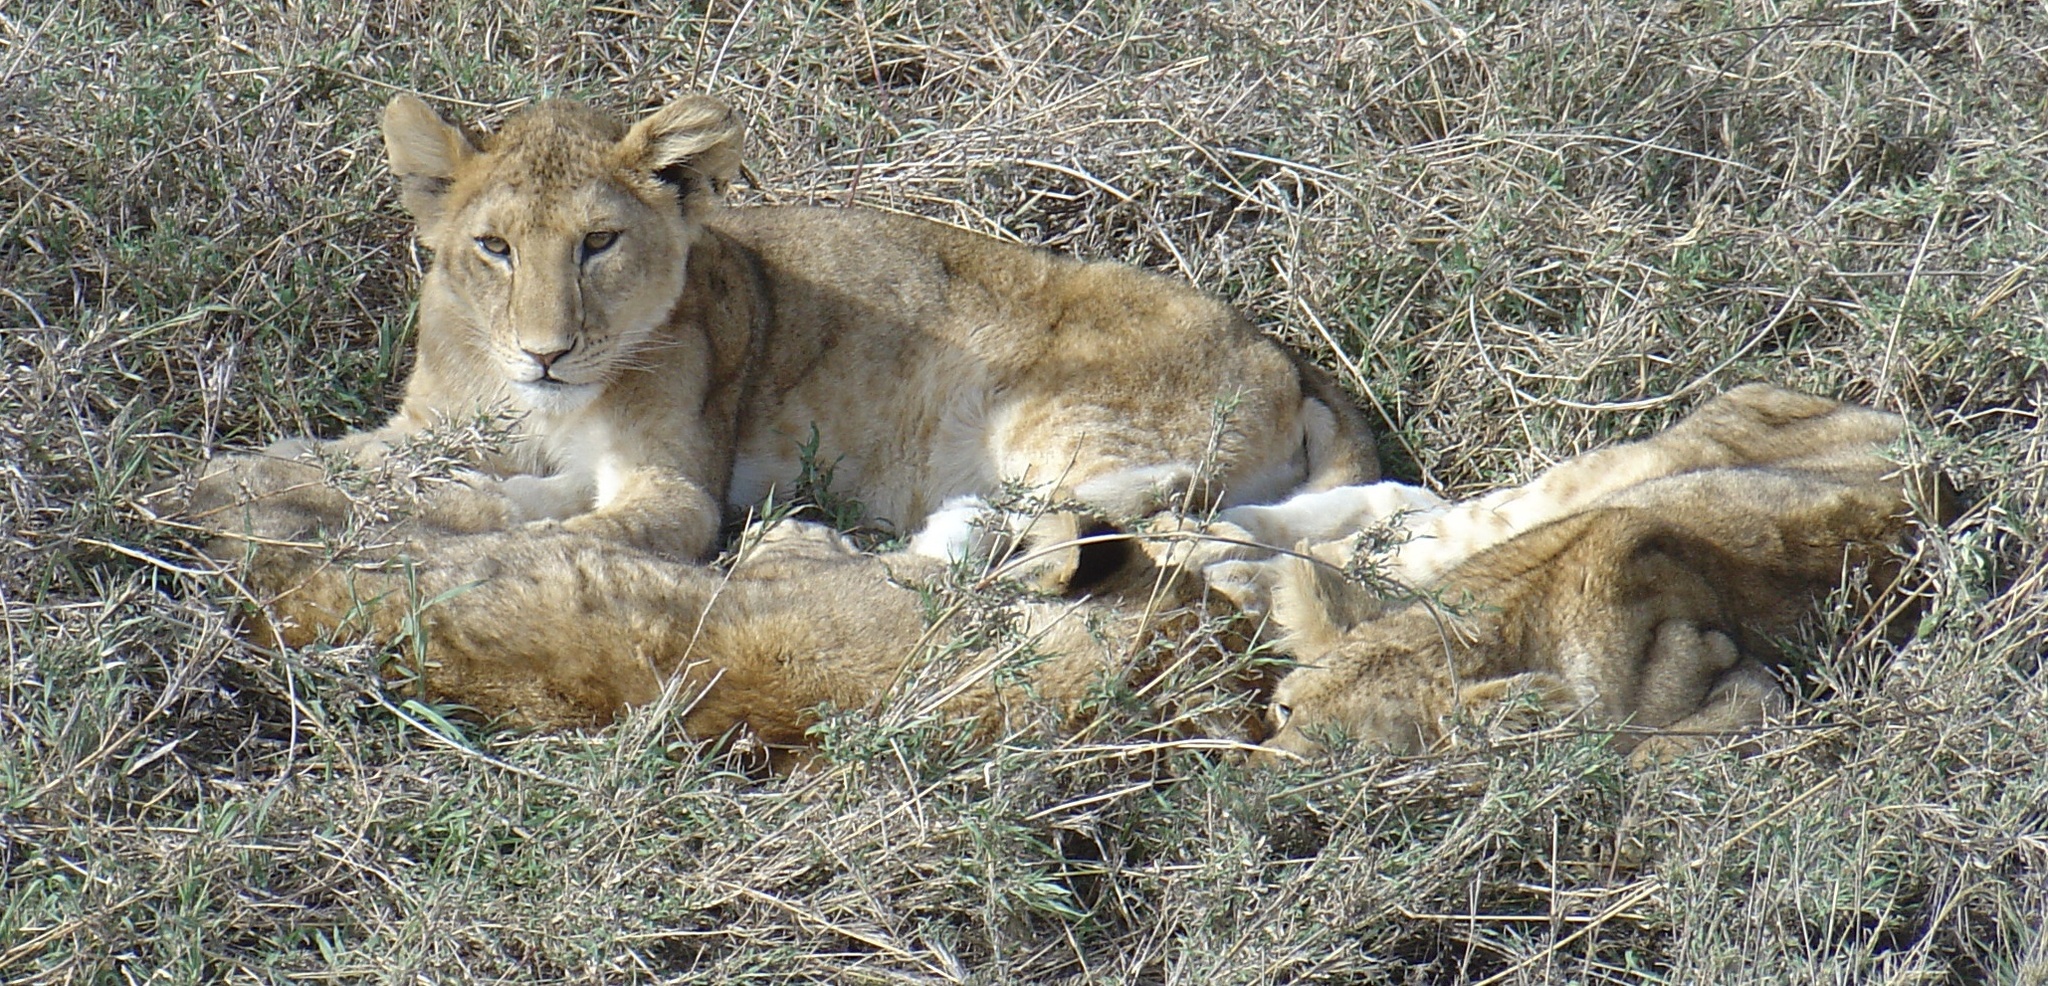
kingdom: Animalia
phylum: Chordata
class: Mammalia
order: Carnivora
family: Felidae
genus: Panthera
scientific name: Panthera leo
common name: Lion
